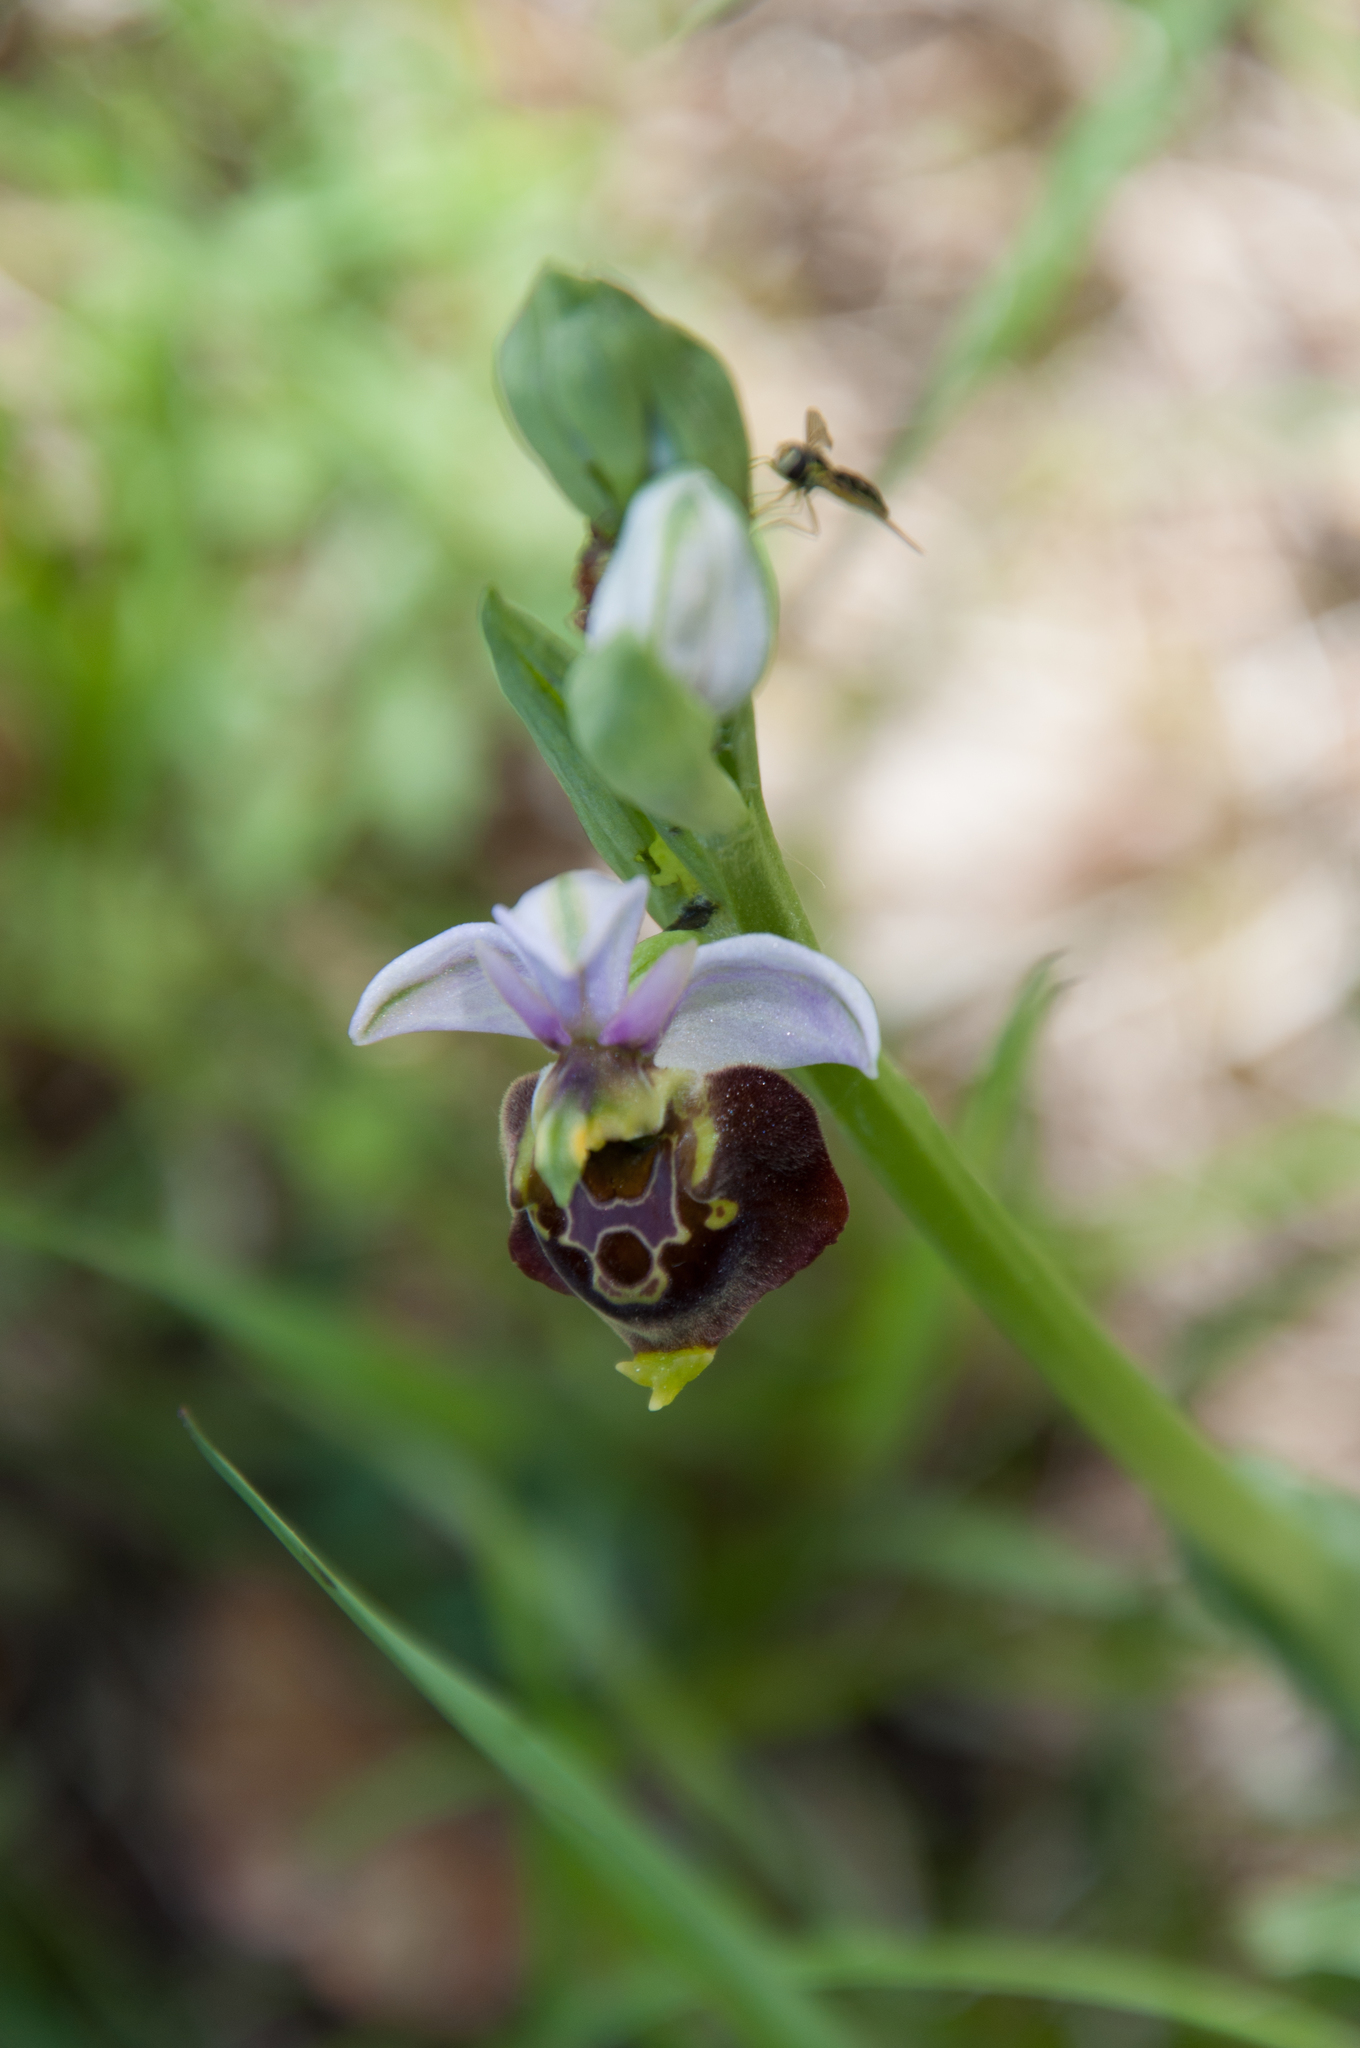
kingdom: Plantae
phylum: Tracheophyta
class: Liliopsida
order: Asparagales
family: Orchidaceae
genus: Ophrys
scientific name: Ophrys holosericea
